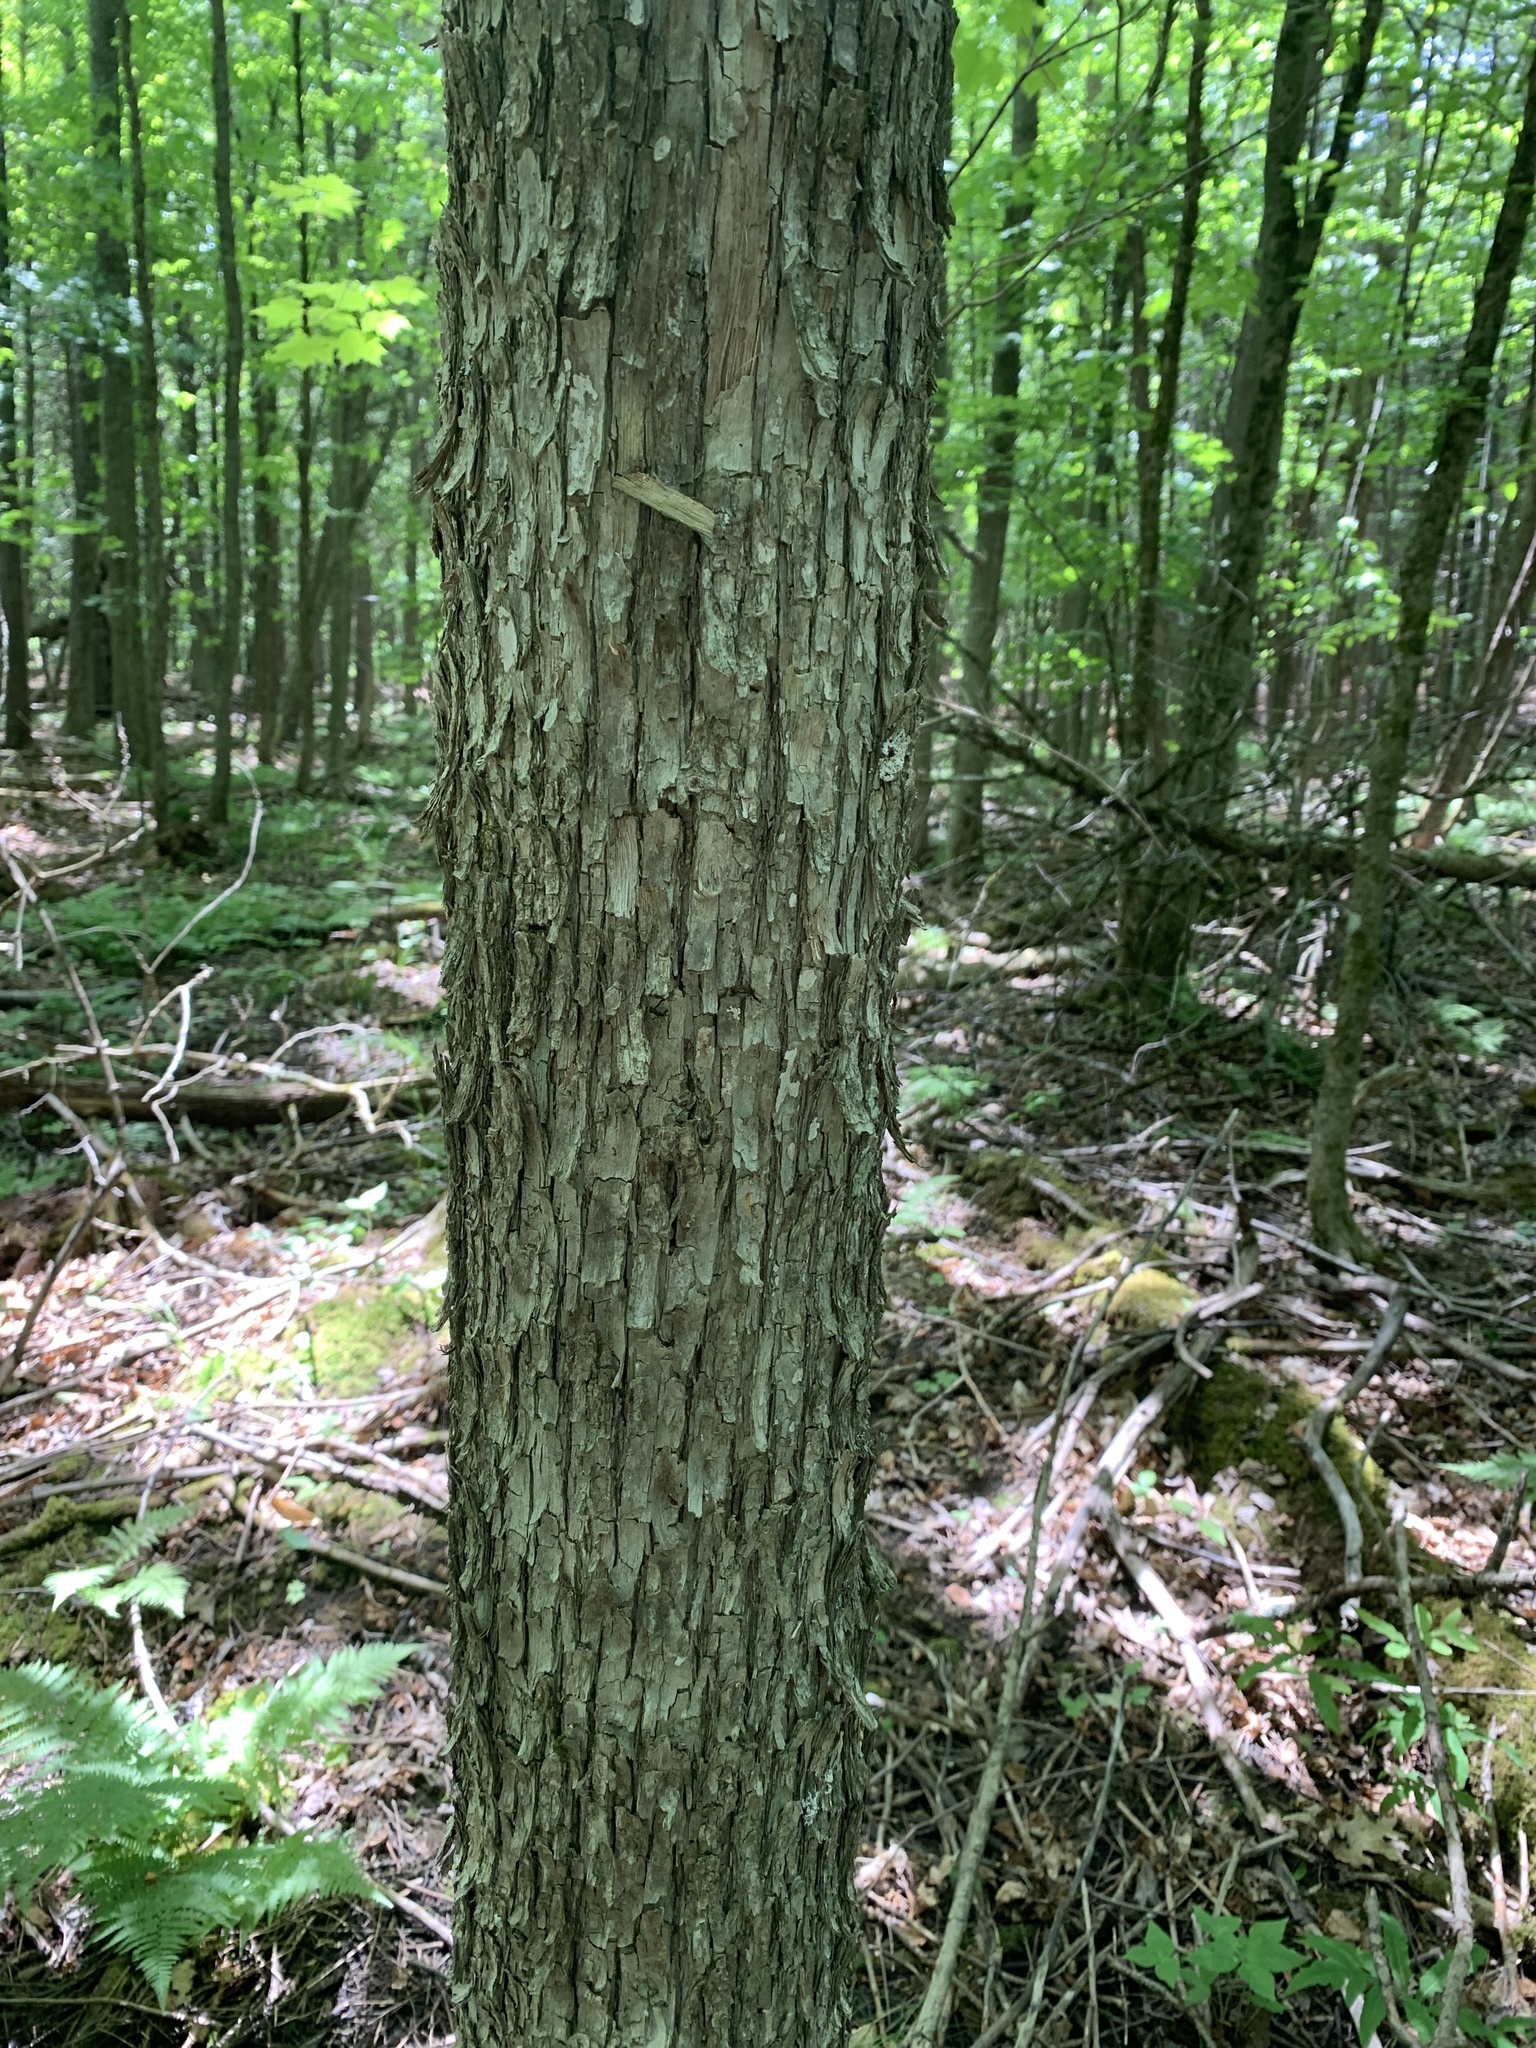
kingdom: Plantae
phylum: Tracheophyta
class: Magnoliopsida
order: Fagales
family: Betulaceae
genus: Ostrya
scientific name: Ostrya virginiana
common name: Ironwood
